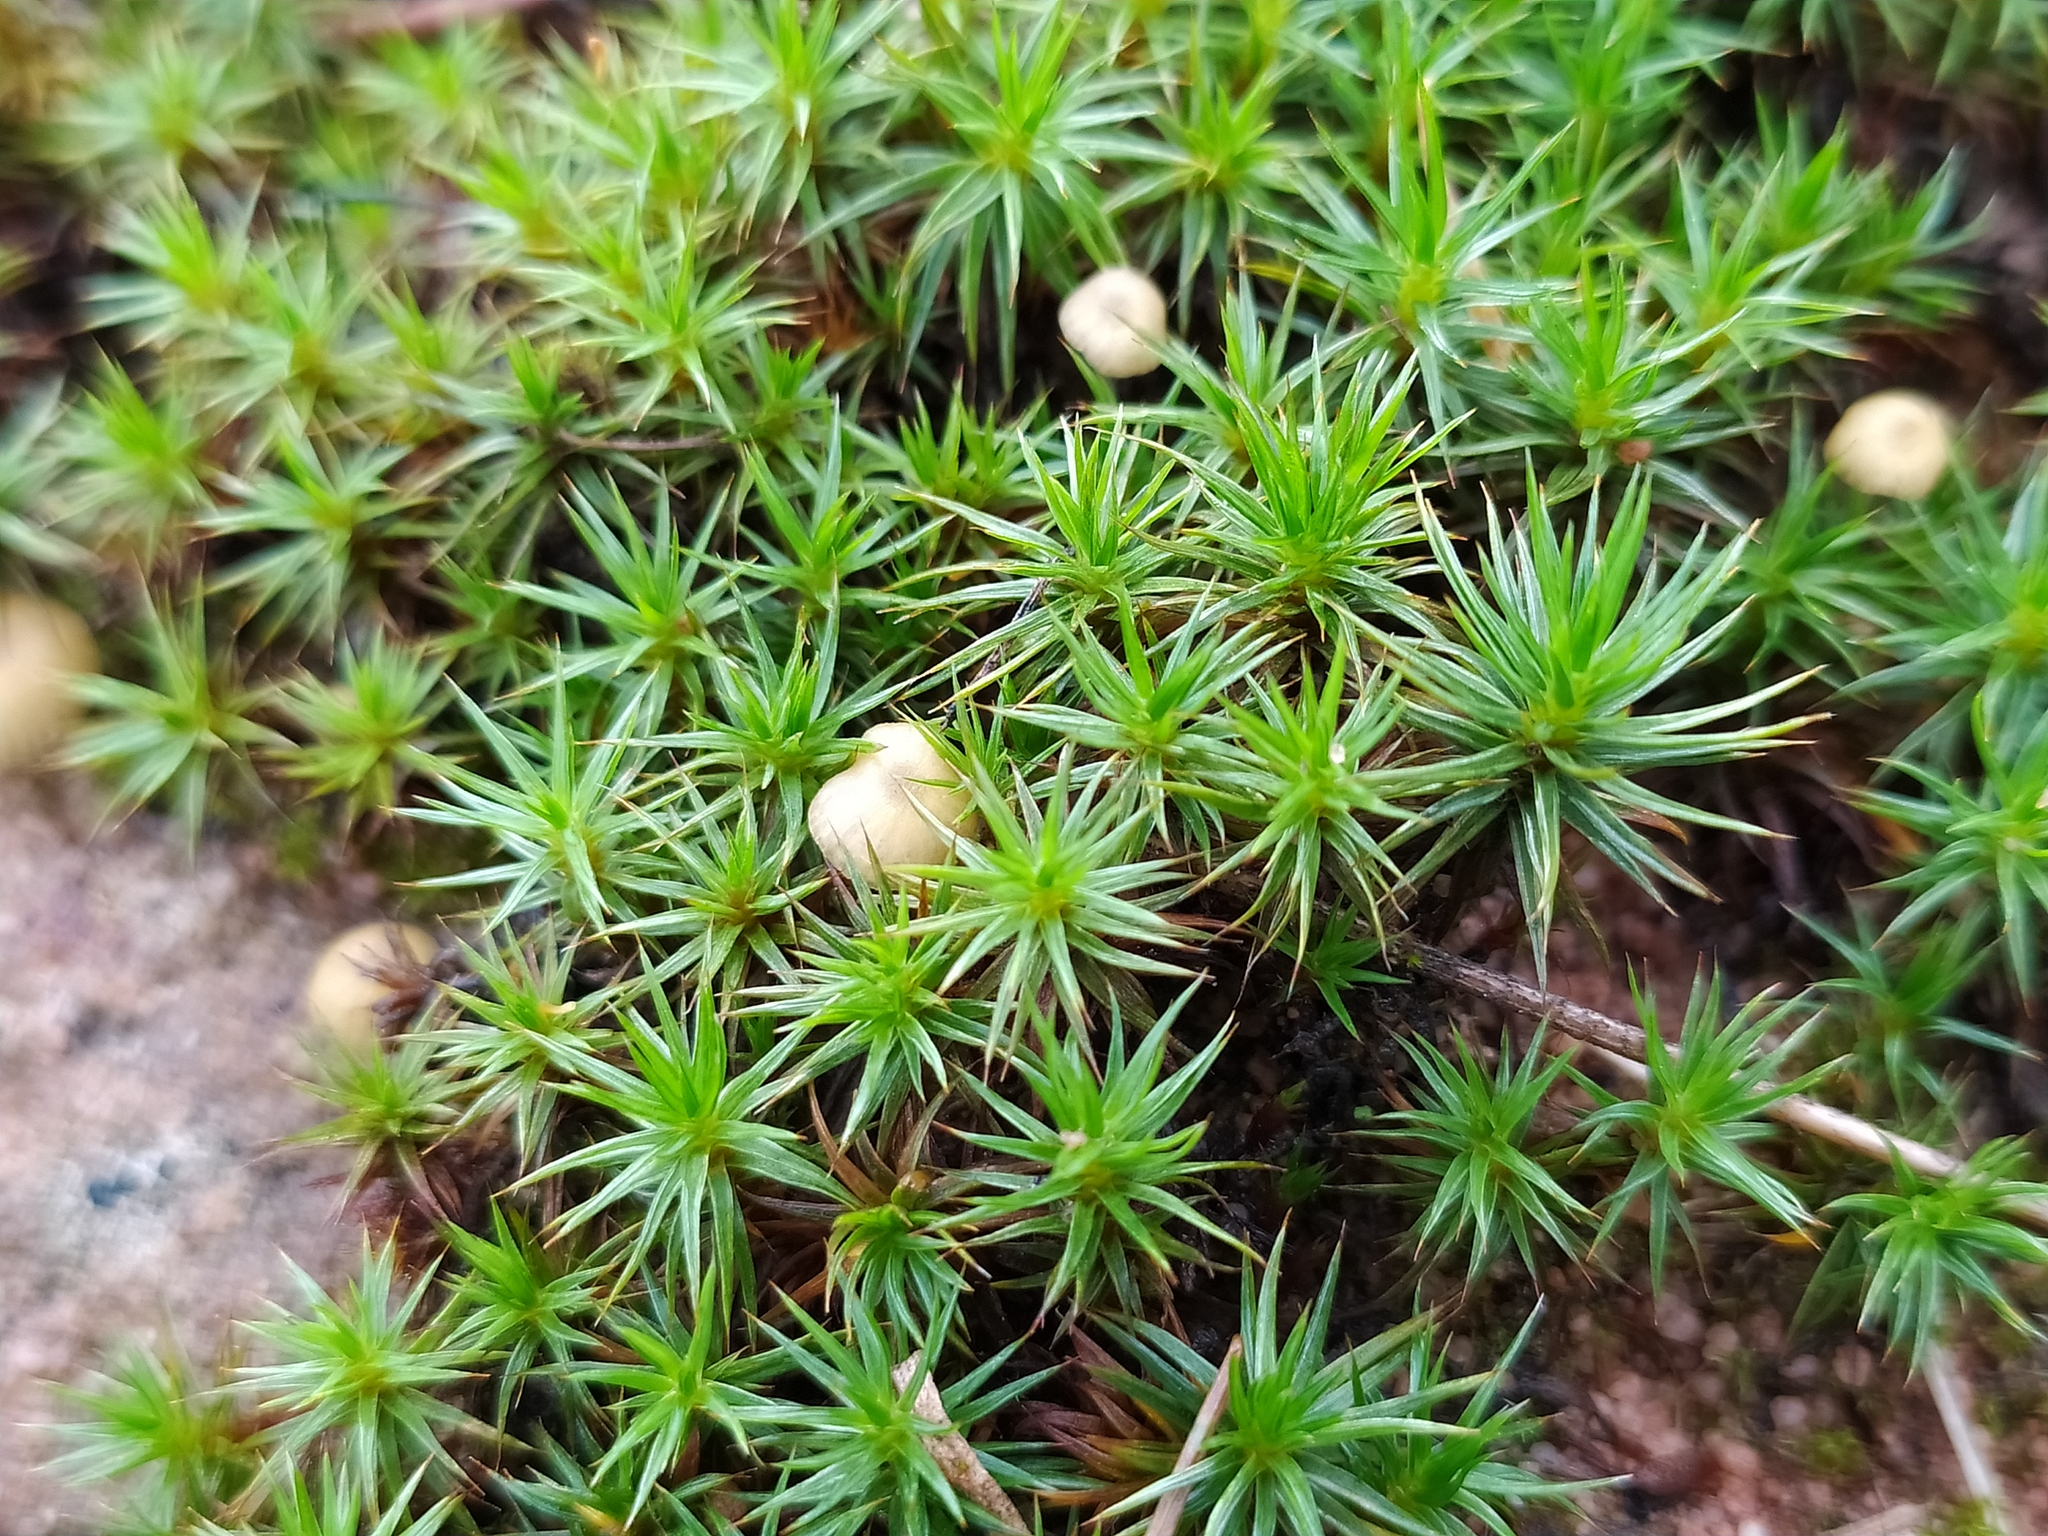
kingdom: Plantae
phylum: Bryophyta
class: Polytrichopsida
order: Polytrichales
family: Polytrichaceae
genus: Polytrichum
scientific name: Polytrichum juniperinum
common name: Juniper haircap moss
